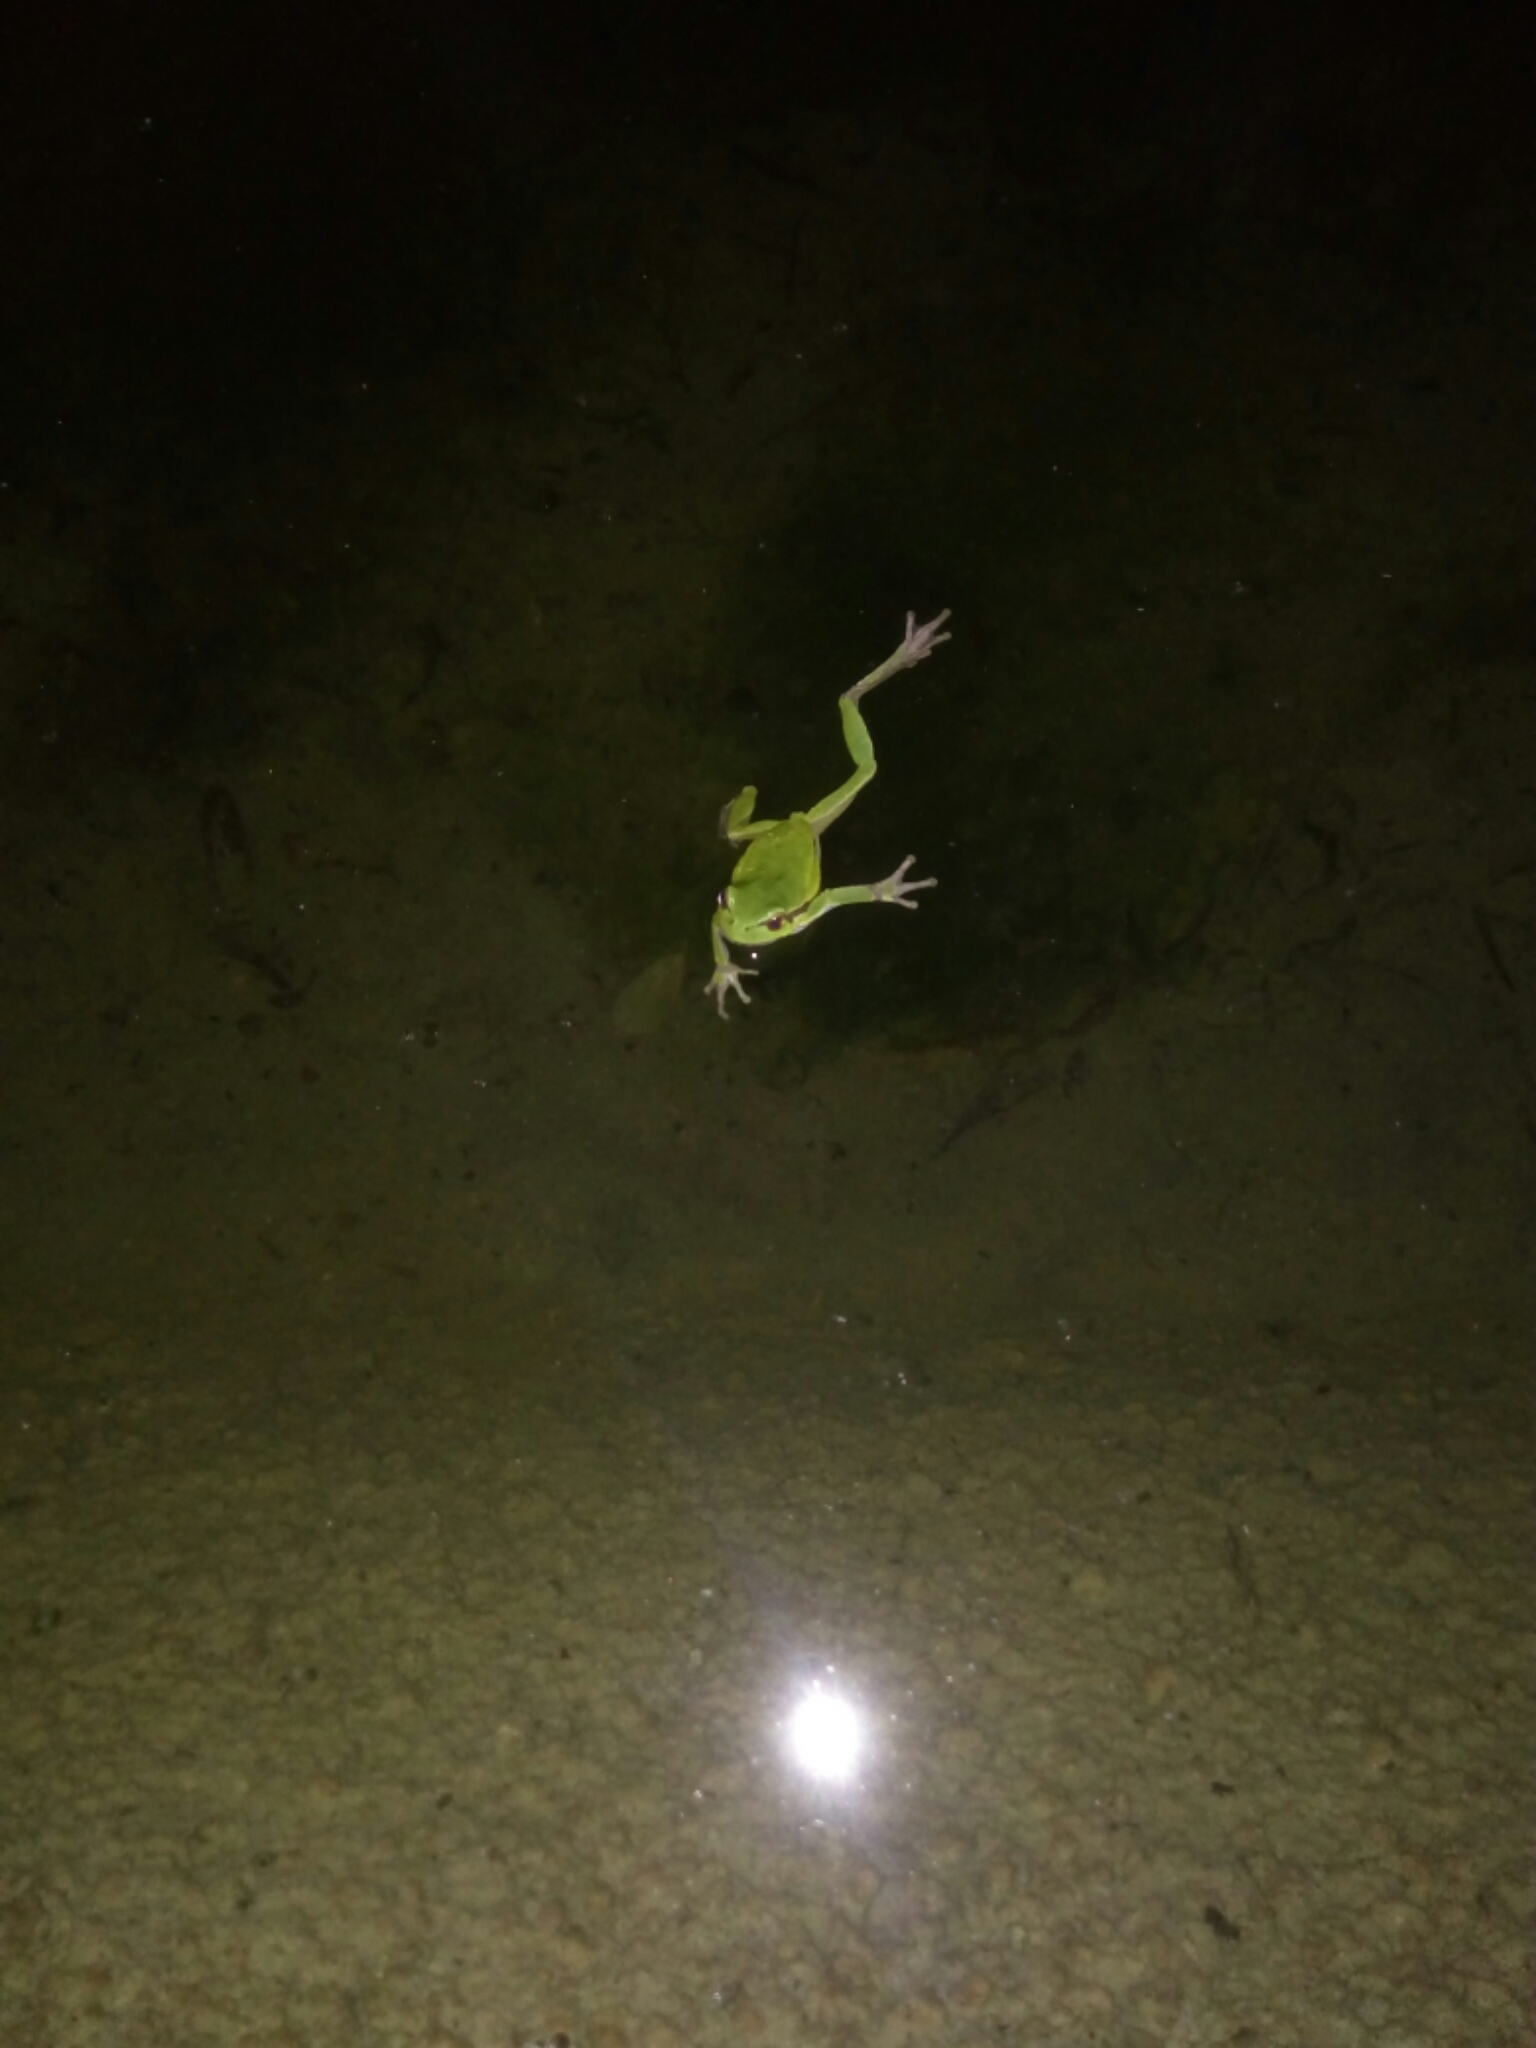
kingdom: Animalia
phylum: Chordata
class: Amphibia
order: Anura
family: Hylidae
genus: Hyla
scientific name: Hyla intermedia
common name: Italian tree frog
